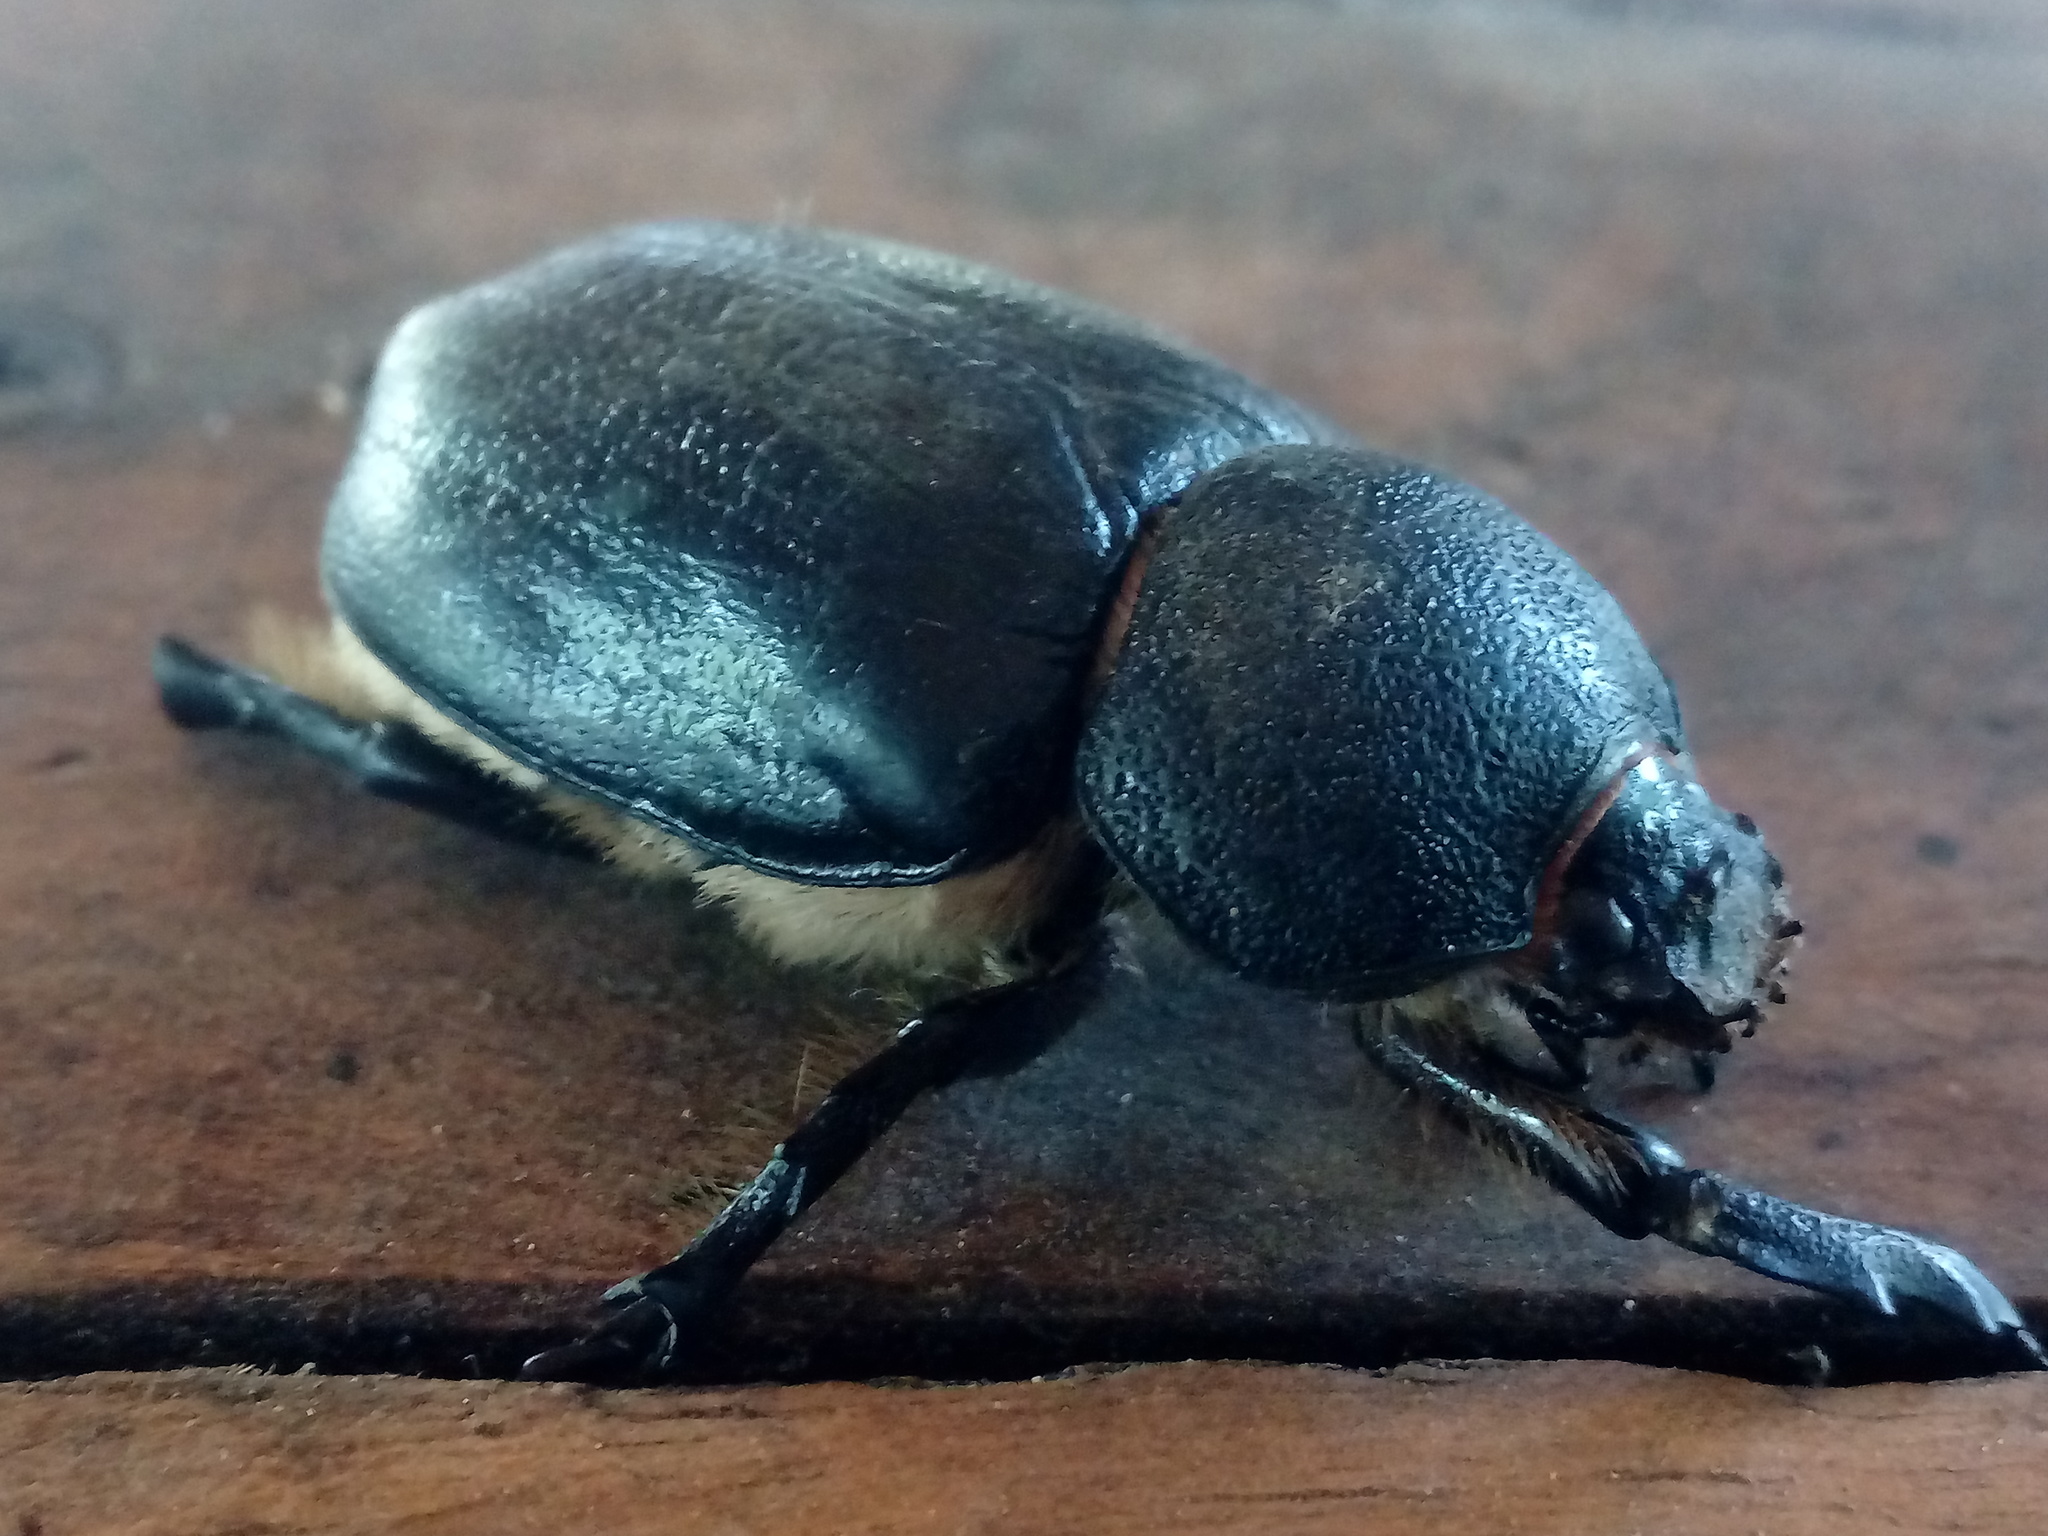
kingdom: Animalia
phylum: Arthropoda
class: Insecta
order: Coleoptera
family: Scarabaeidae
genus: Megasoma
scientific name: Megasoma thersites
